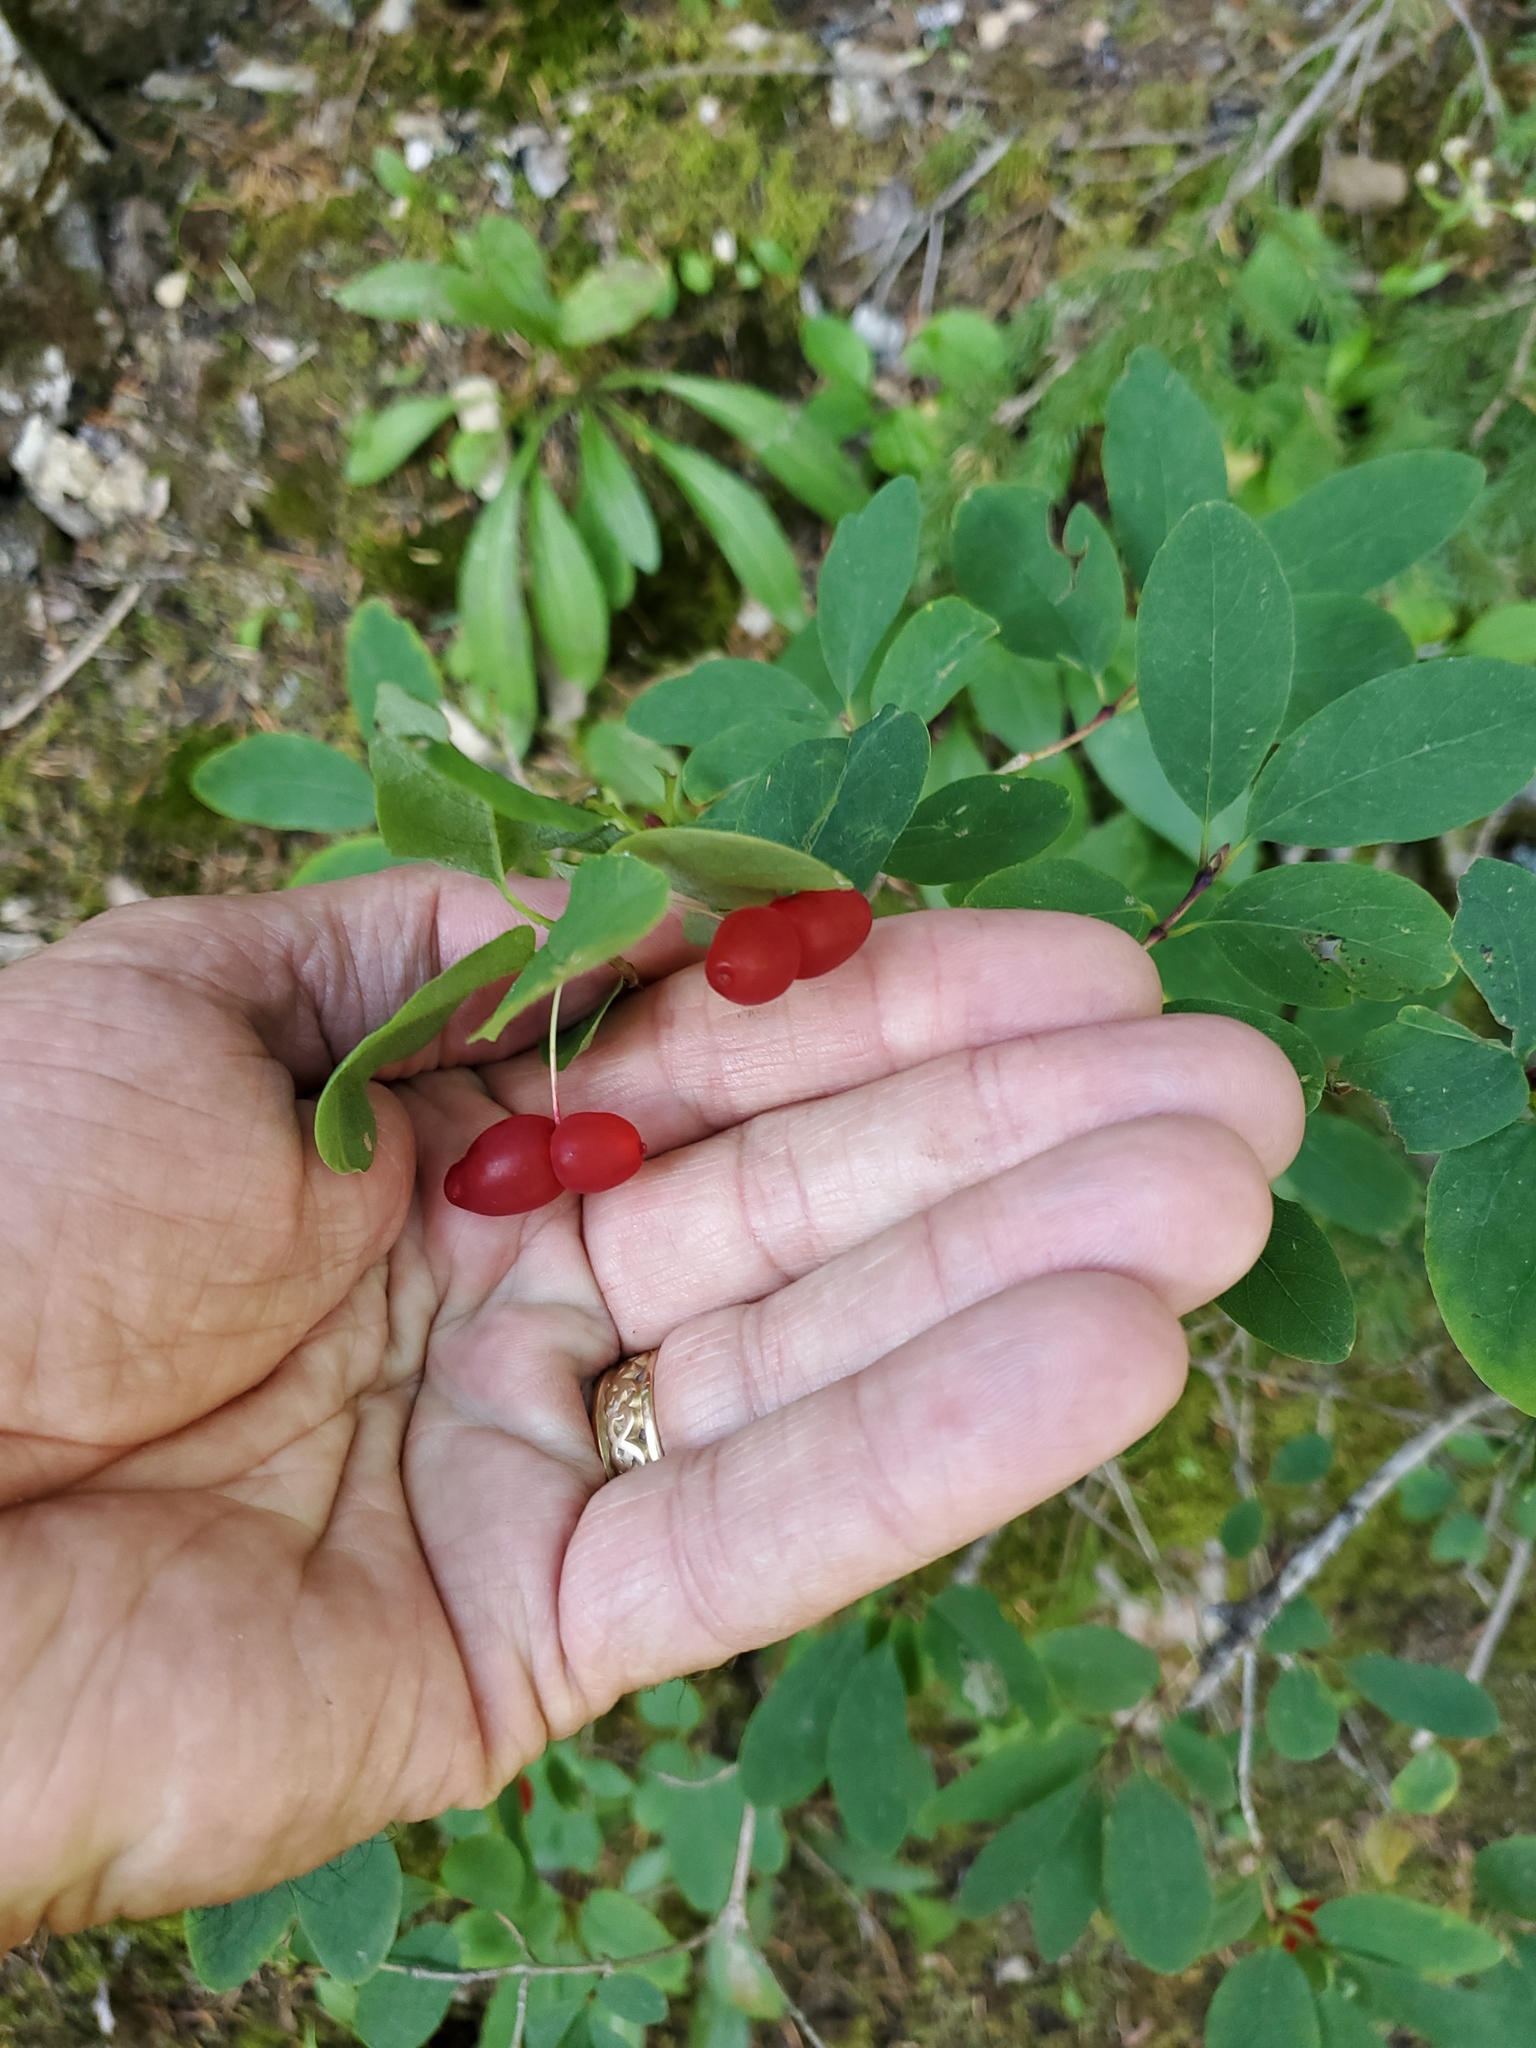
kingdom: Plantae
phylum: Tracheophyta
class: Magnoliopsida
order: Dipsacales
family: Caprifoliaceae
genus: Lonicera
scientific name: Lonicera utahensis
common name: Utah honeysuckle
